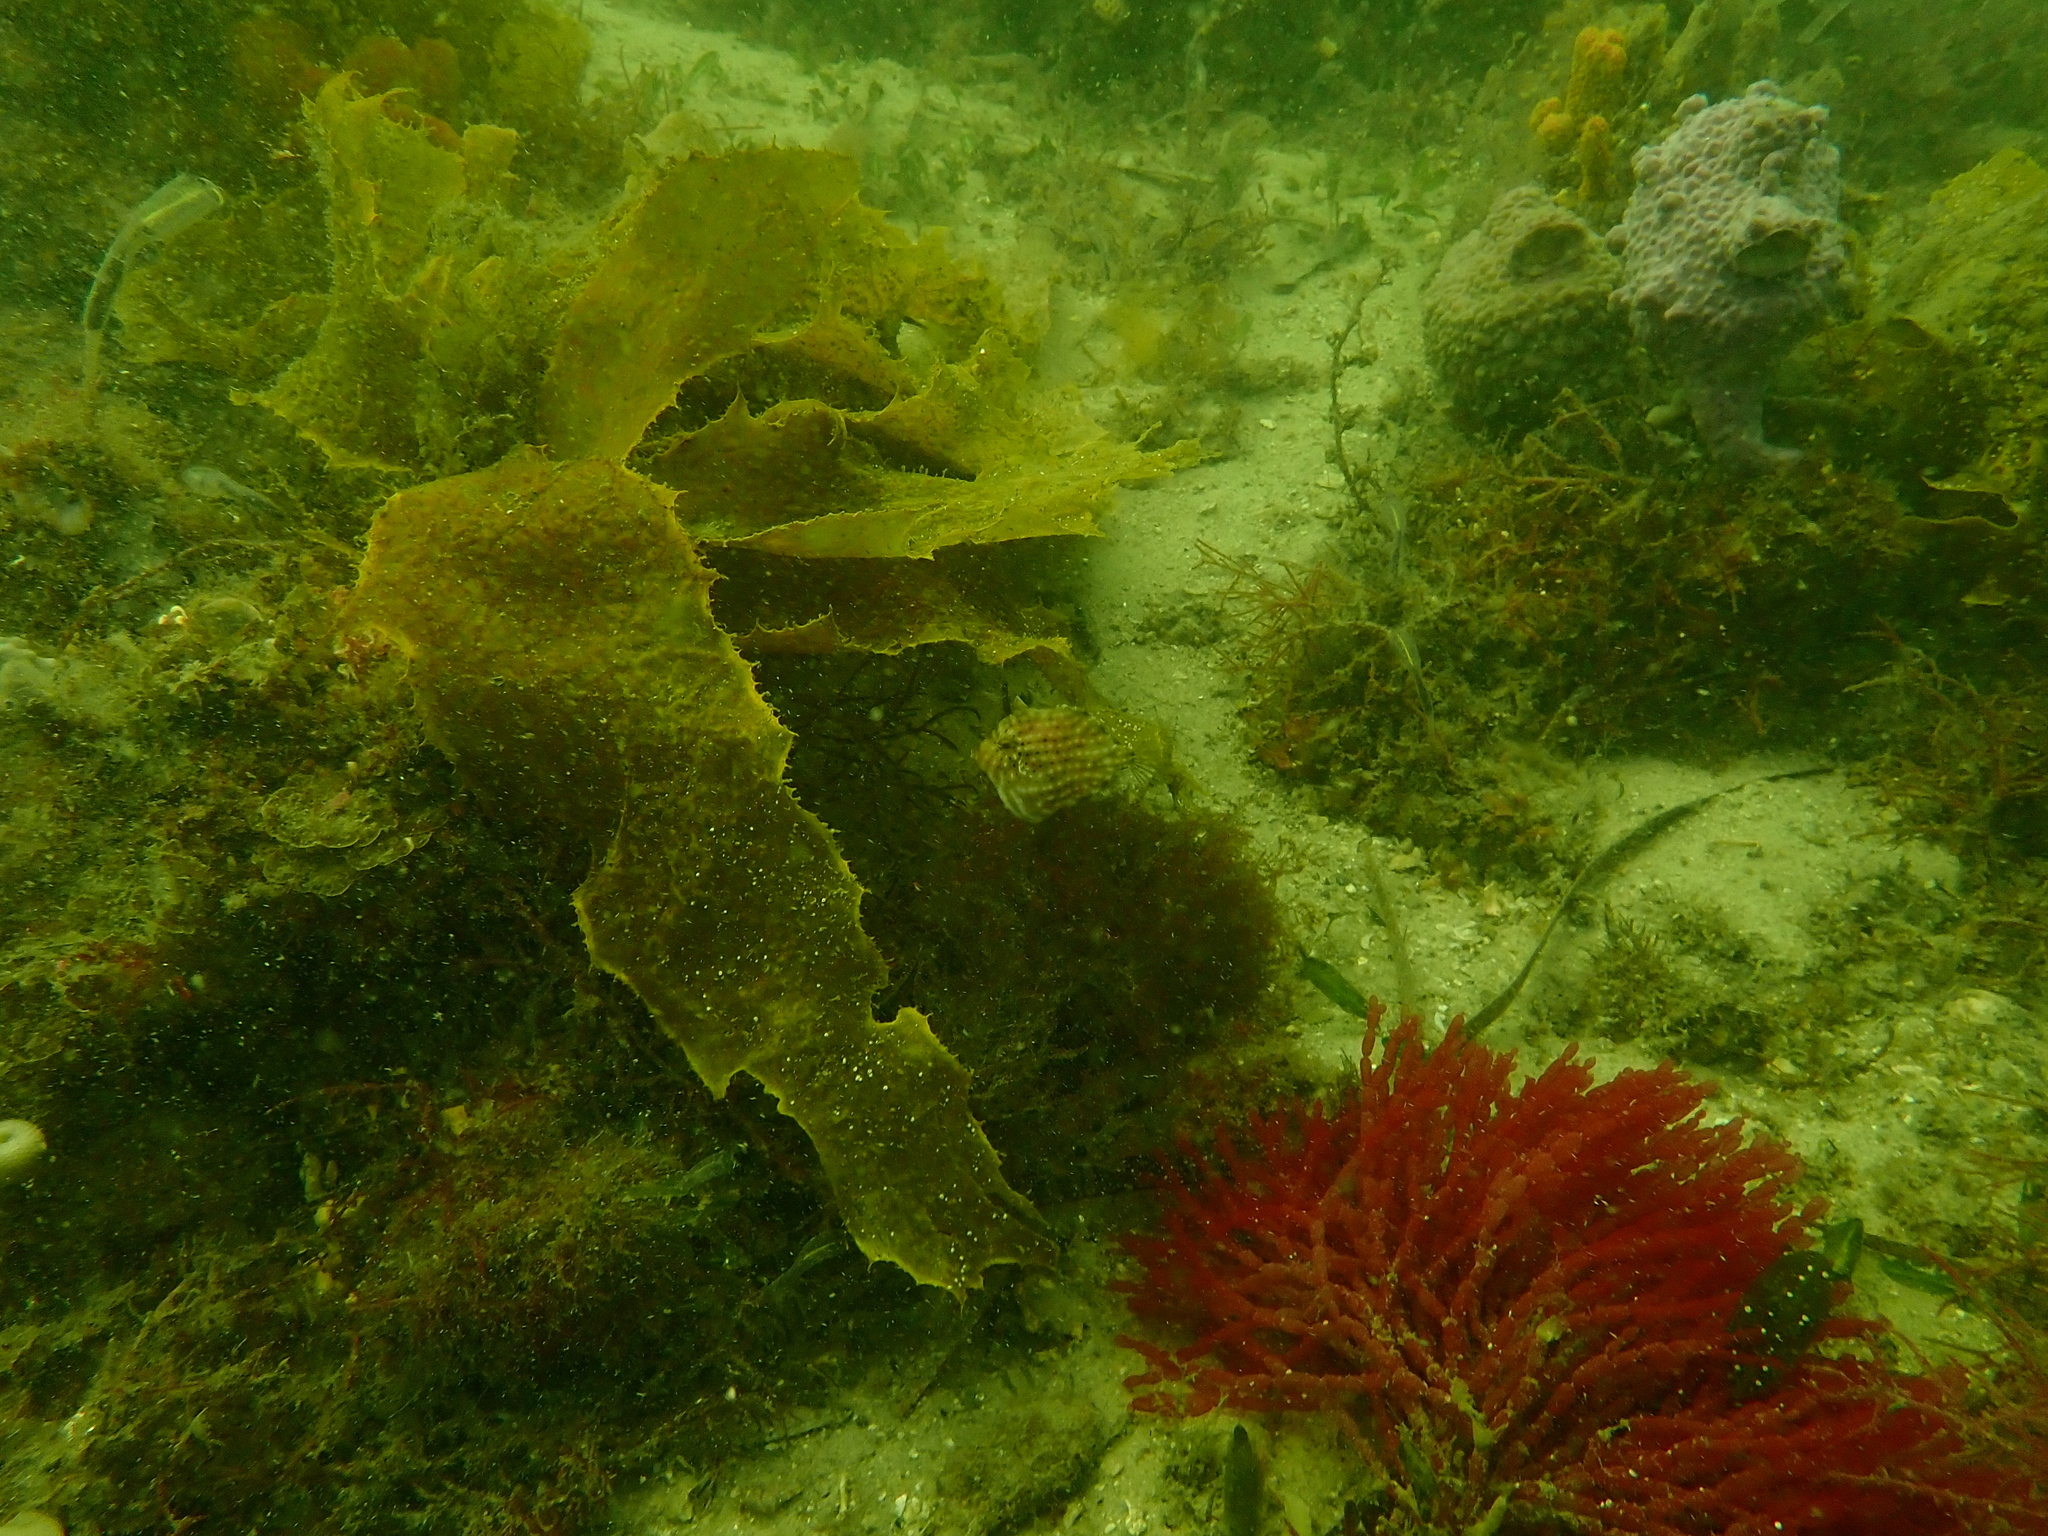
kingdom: Animalia
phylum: Chordata
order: Tetraodontiformes
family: Monacanthidae
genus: Brachaluteres
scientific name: Brachaluteres jacksonianus
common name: Pigmy leatherjacket
